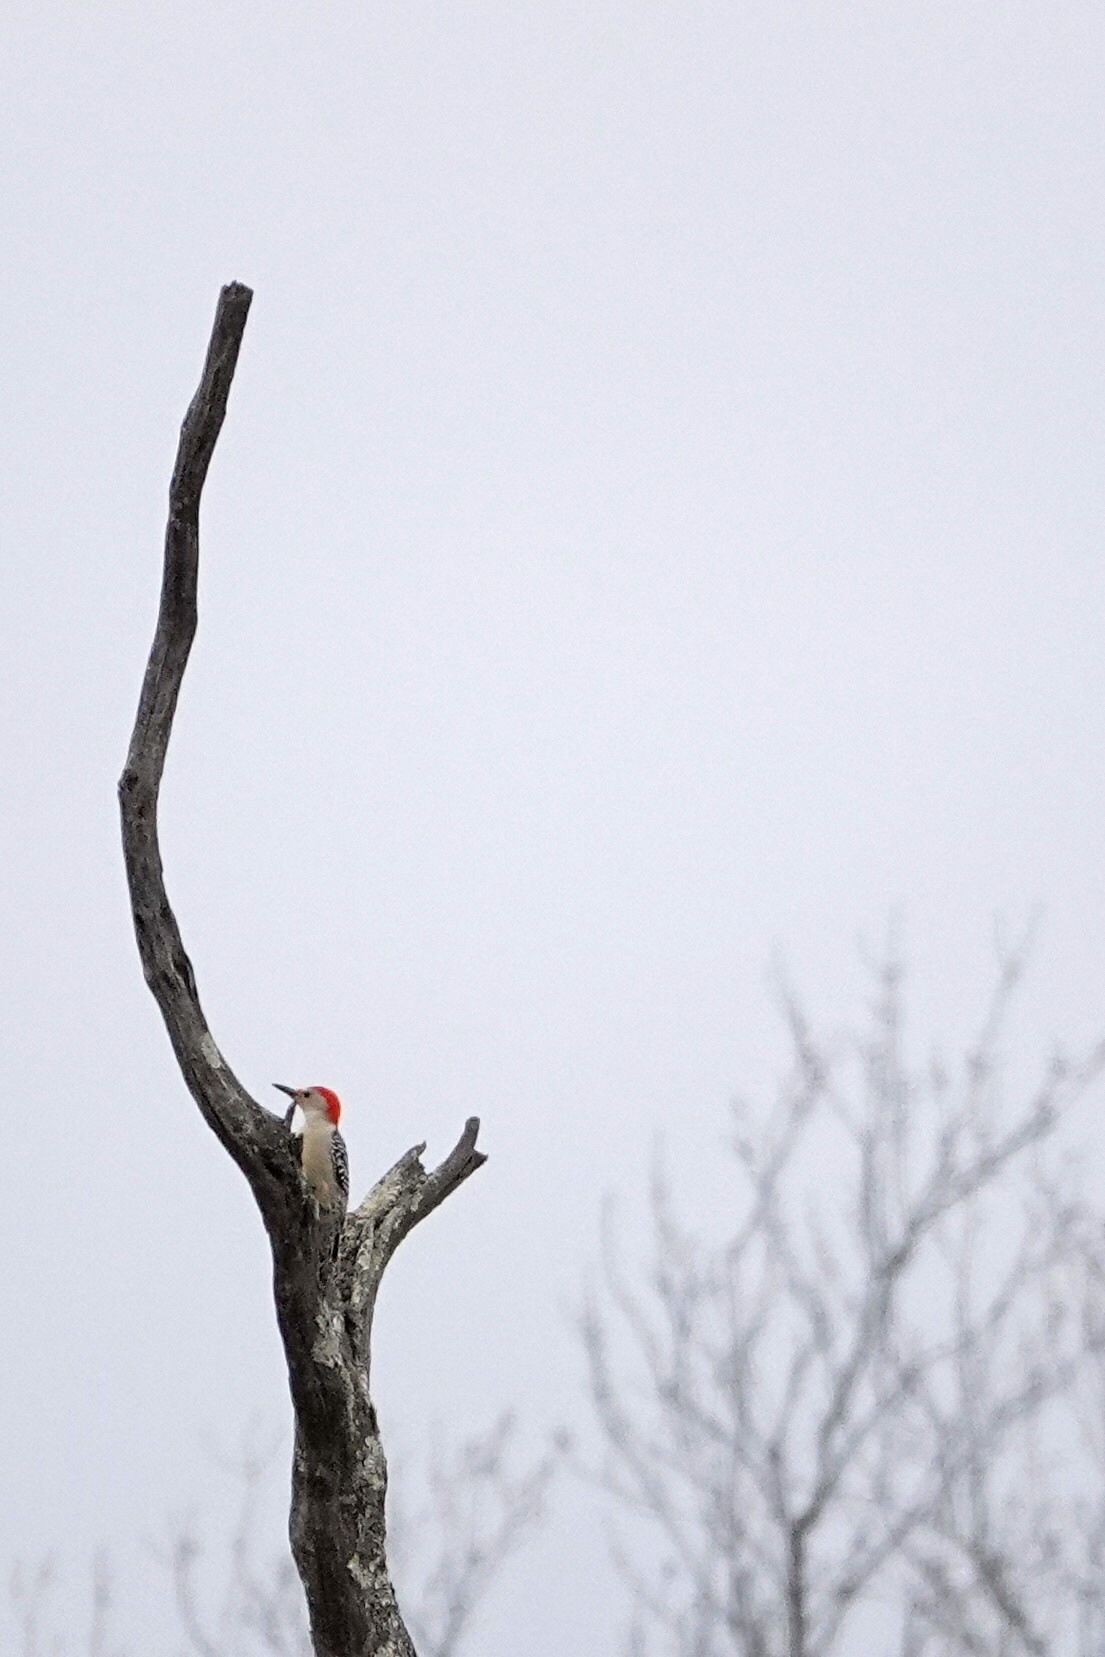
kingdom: Animalia
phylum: Chordata
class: Aves
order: Piciformes
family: Picidae
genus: Melanerpes
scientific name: Melanerpes carolinus
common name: Red-bellied woodpecker
